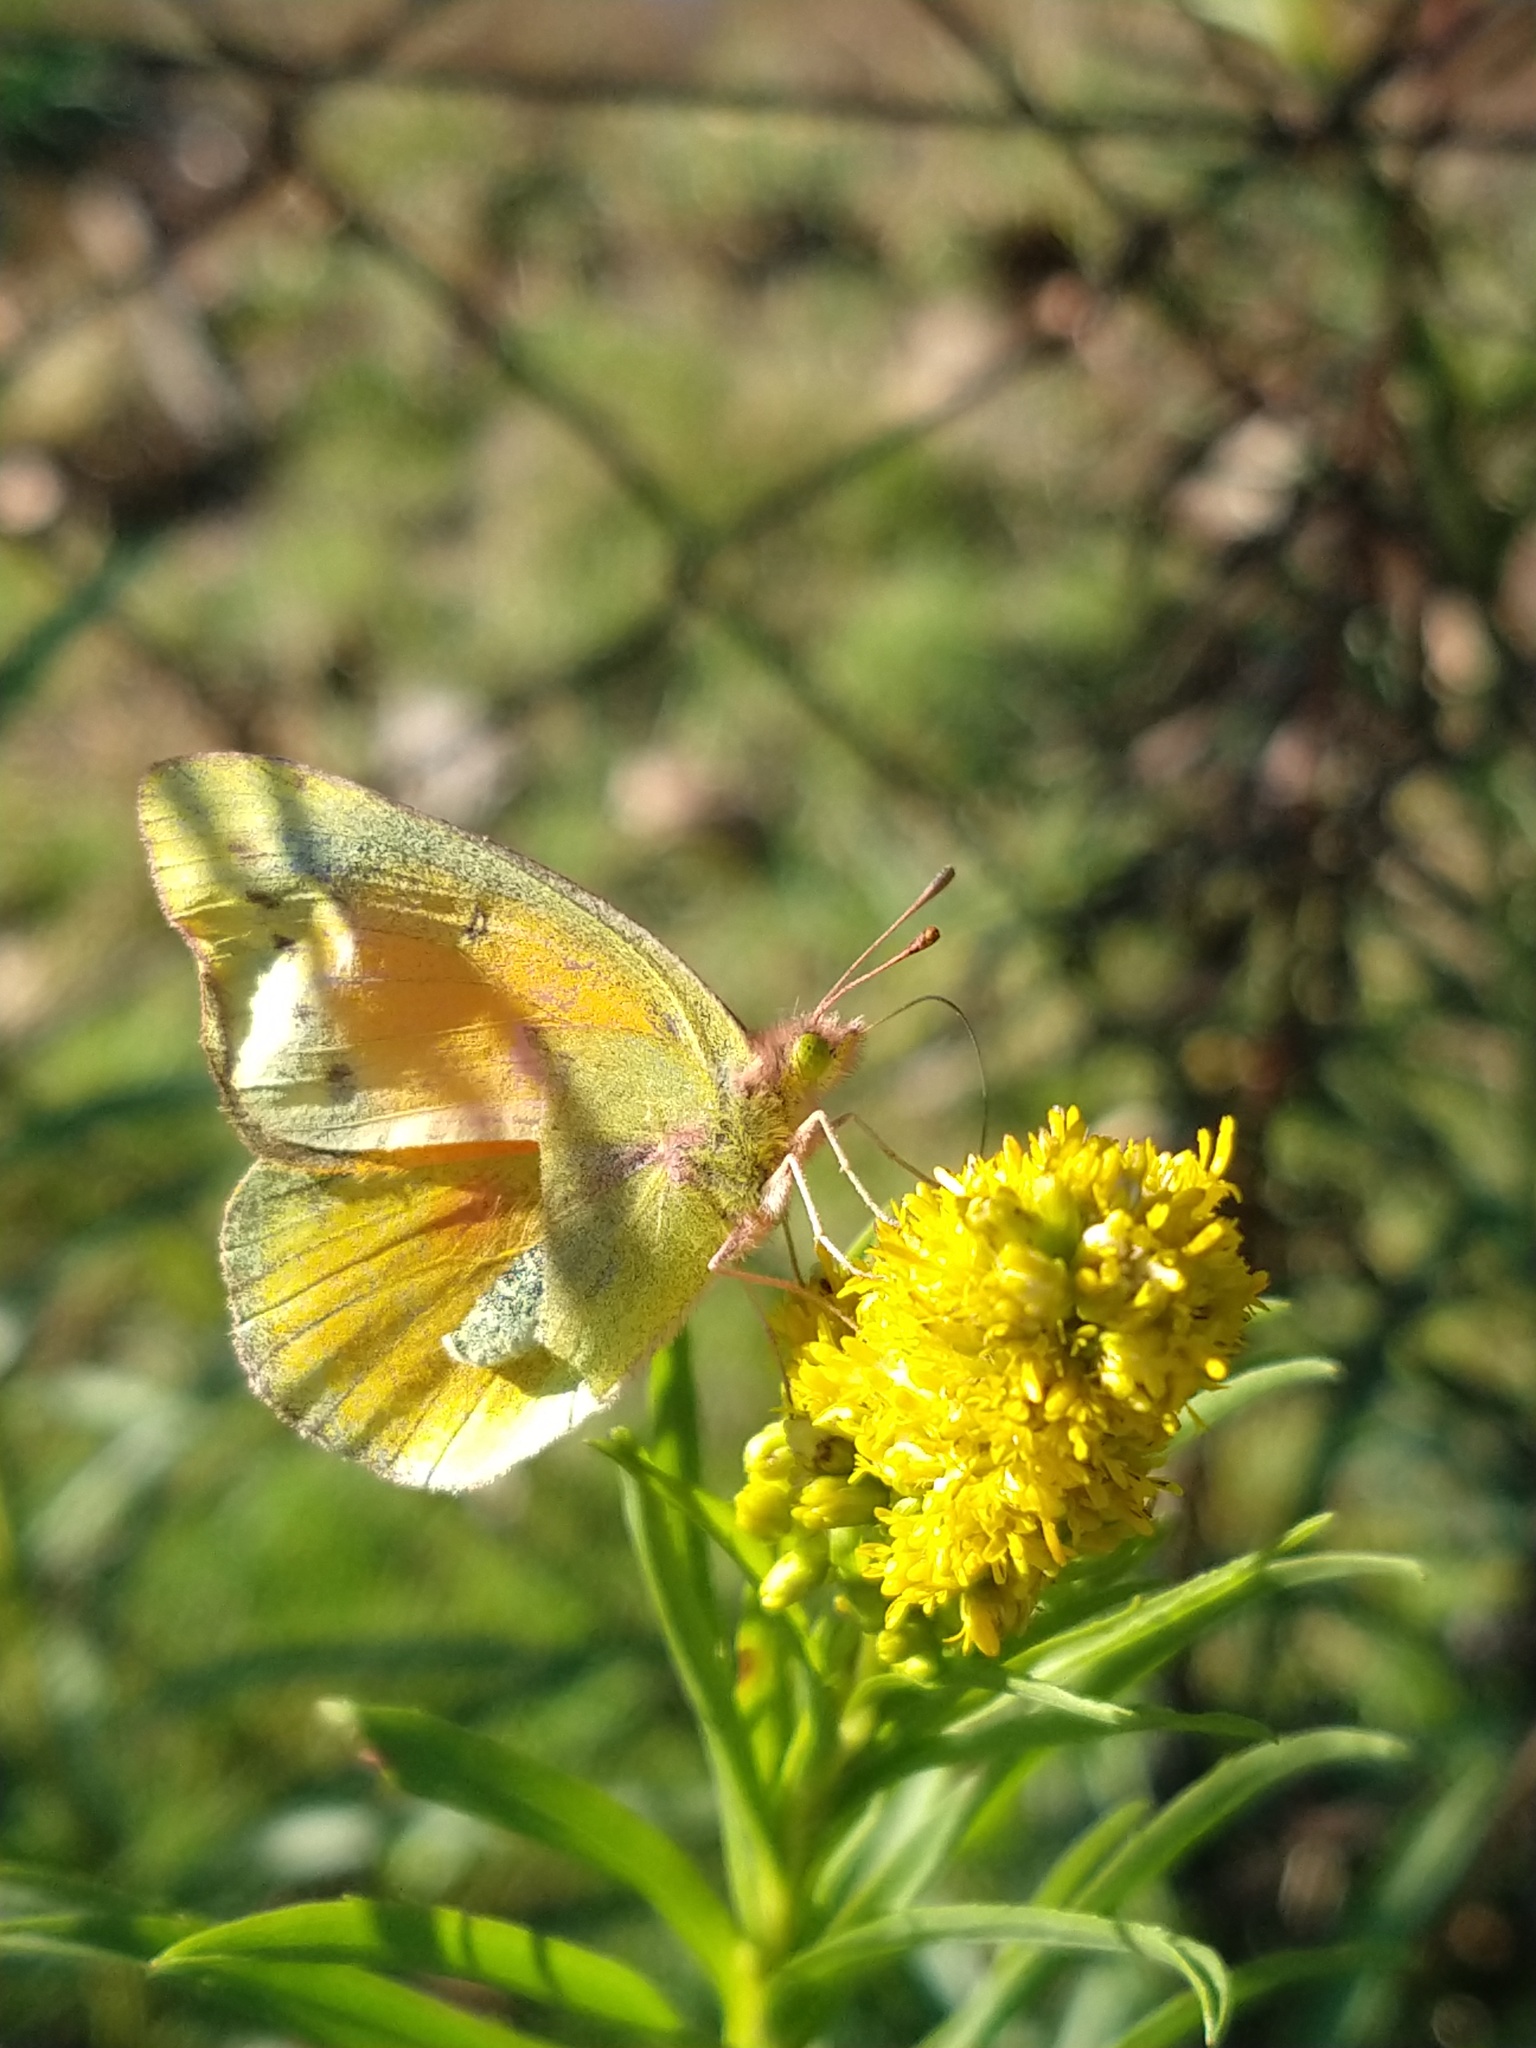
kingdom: Animalia
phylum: Arthropoda
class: Insecta
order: Lepidoptera
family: Pieridae
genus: Colias
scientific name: Colias lesbia
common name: Lesbia clouded yellow
